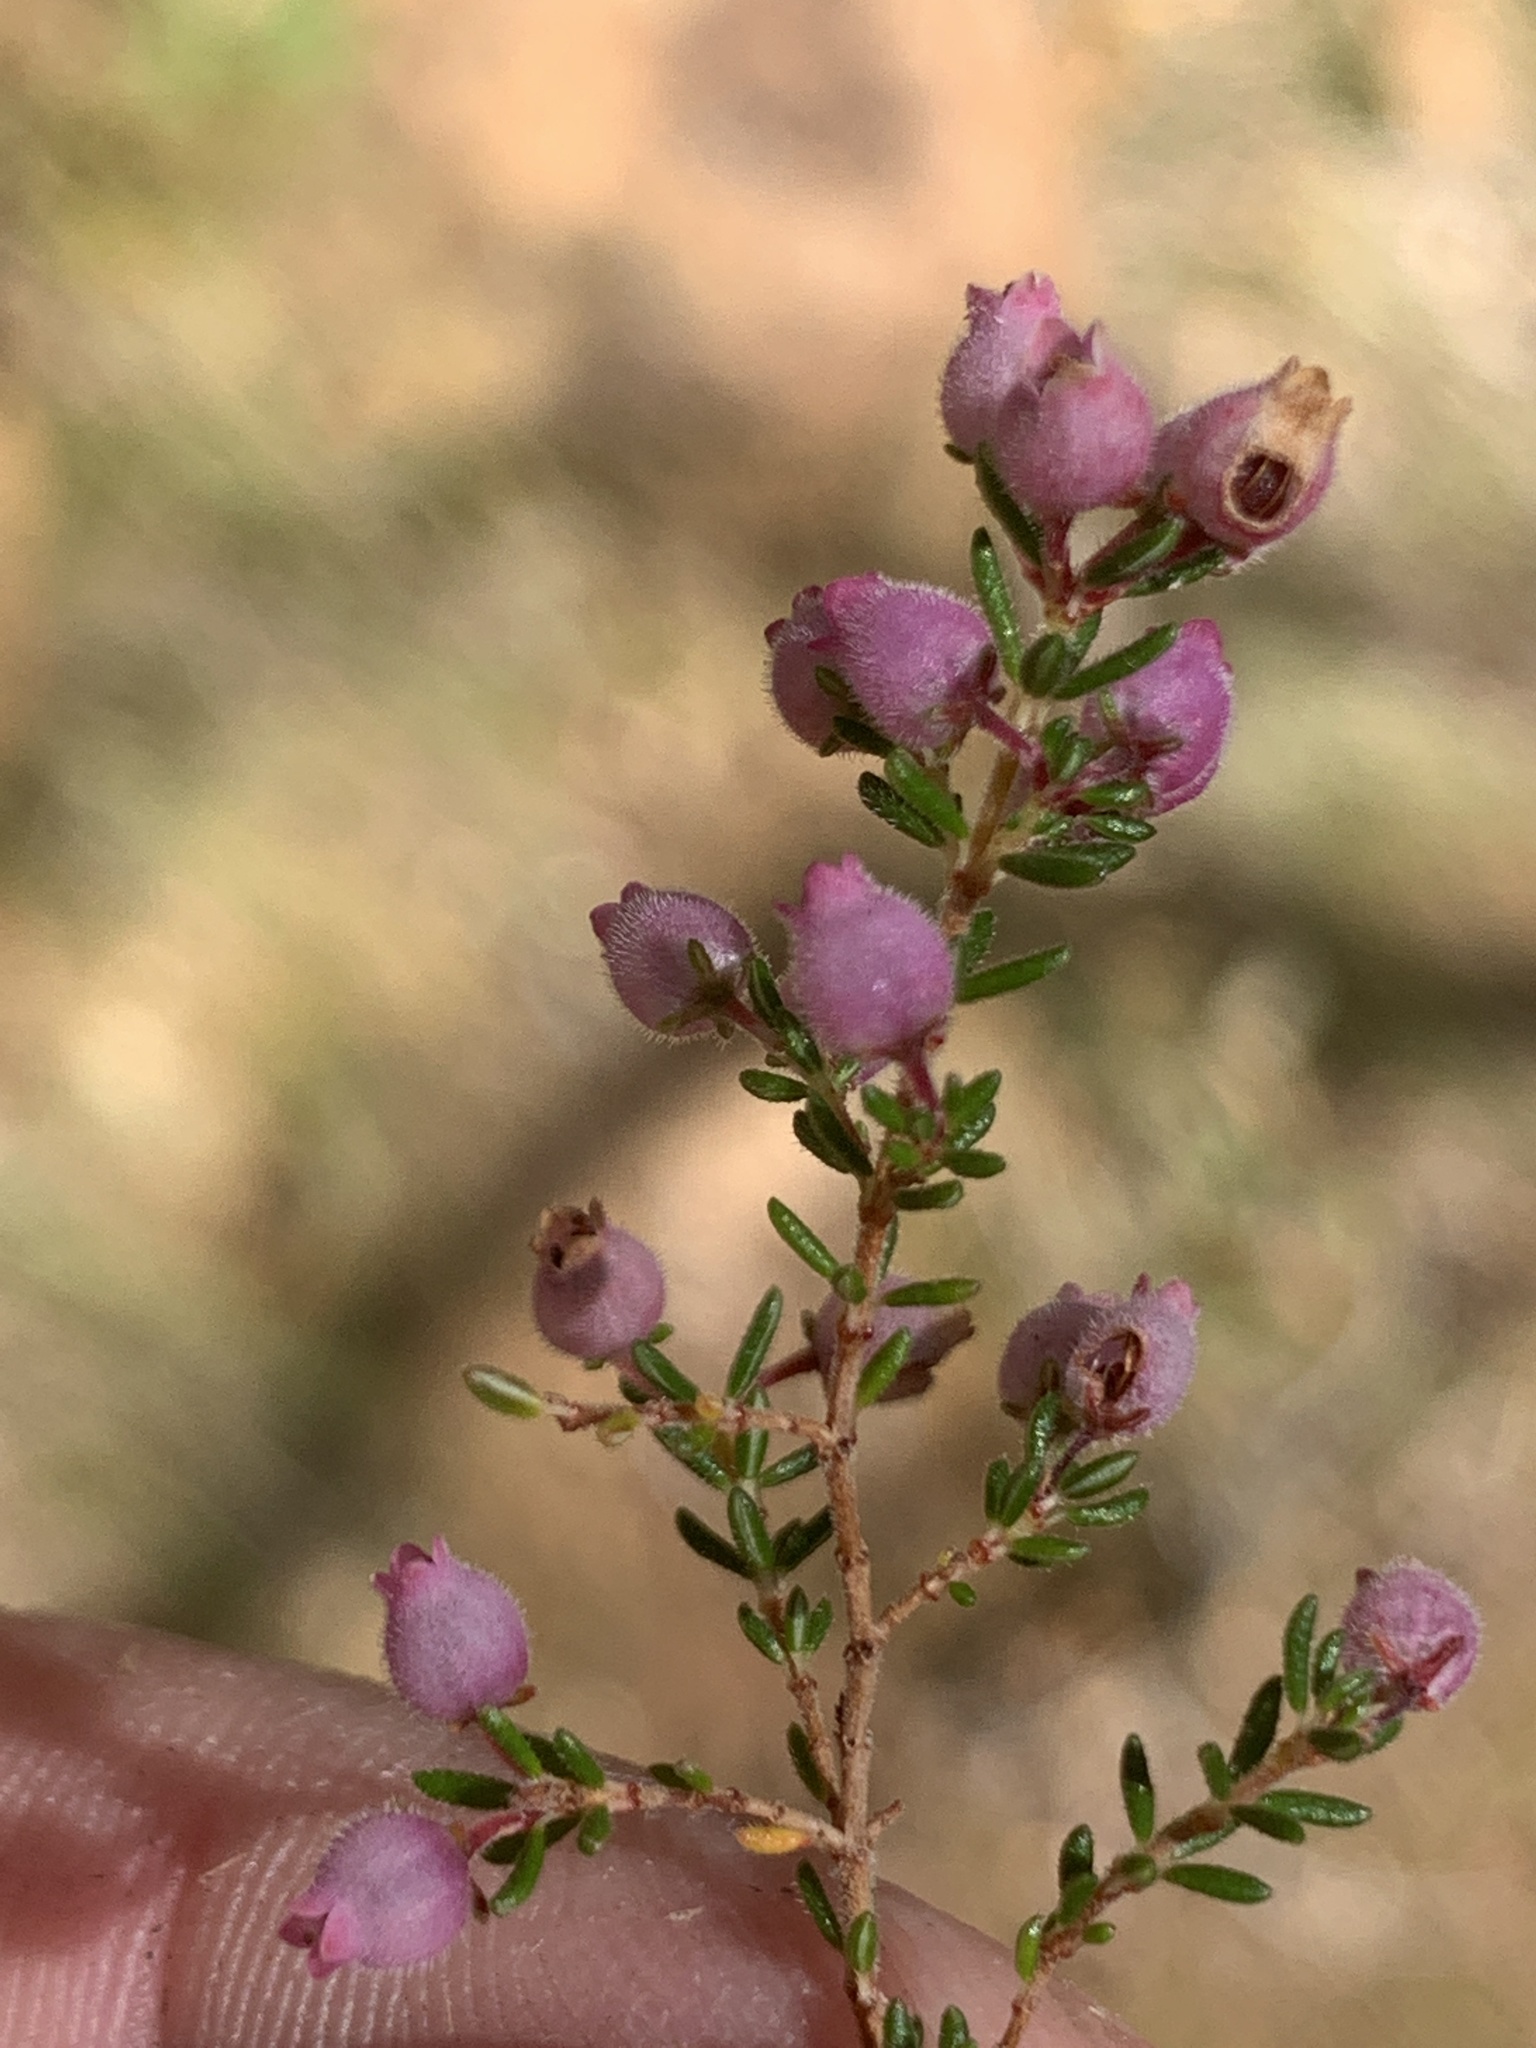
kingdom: Plantae
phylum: Tracheophyta
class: Magnoliopsida
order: Ericales
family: Ericaceae
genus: Erica
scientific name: Erica hirtiflora
